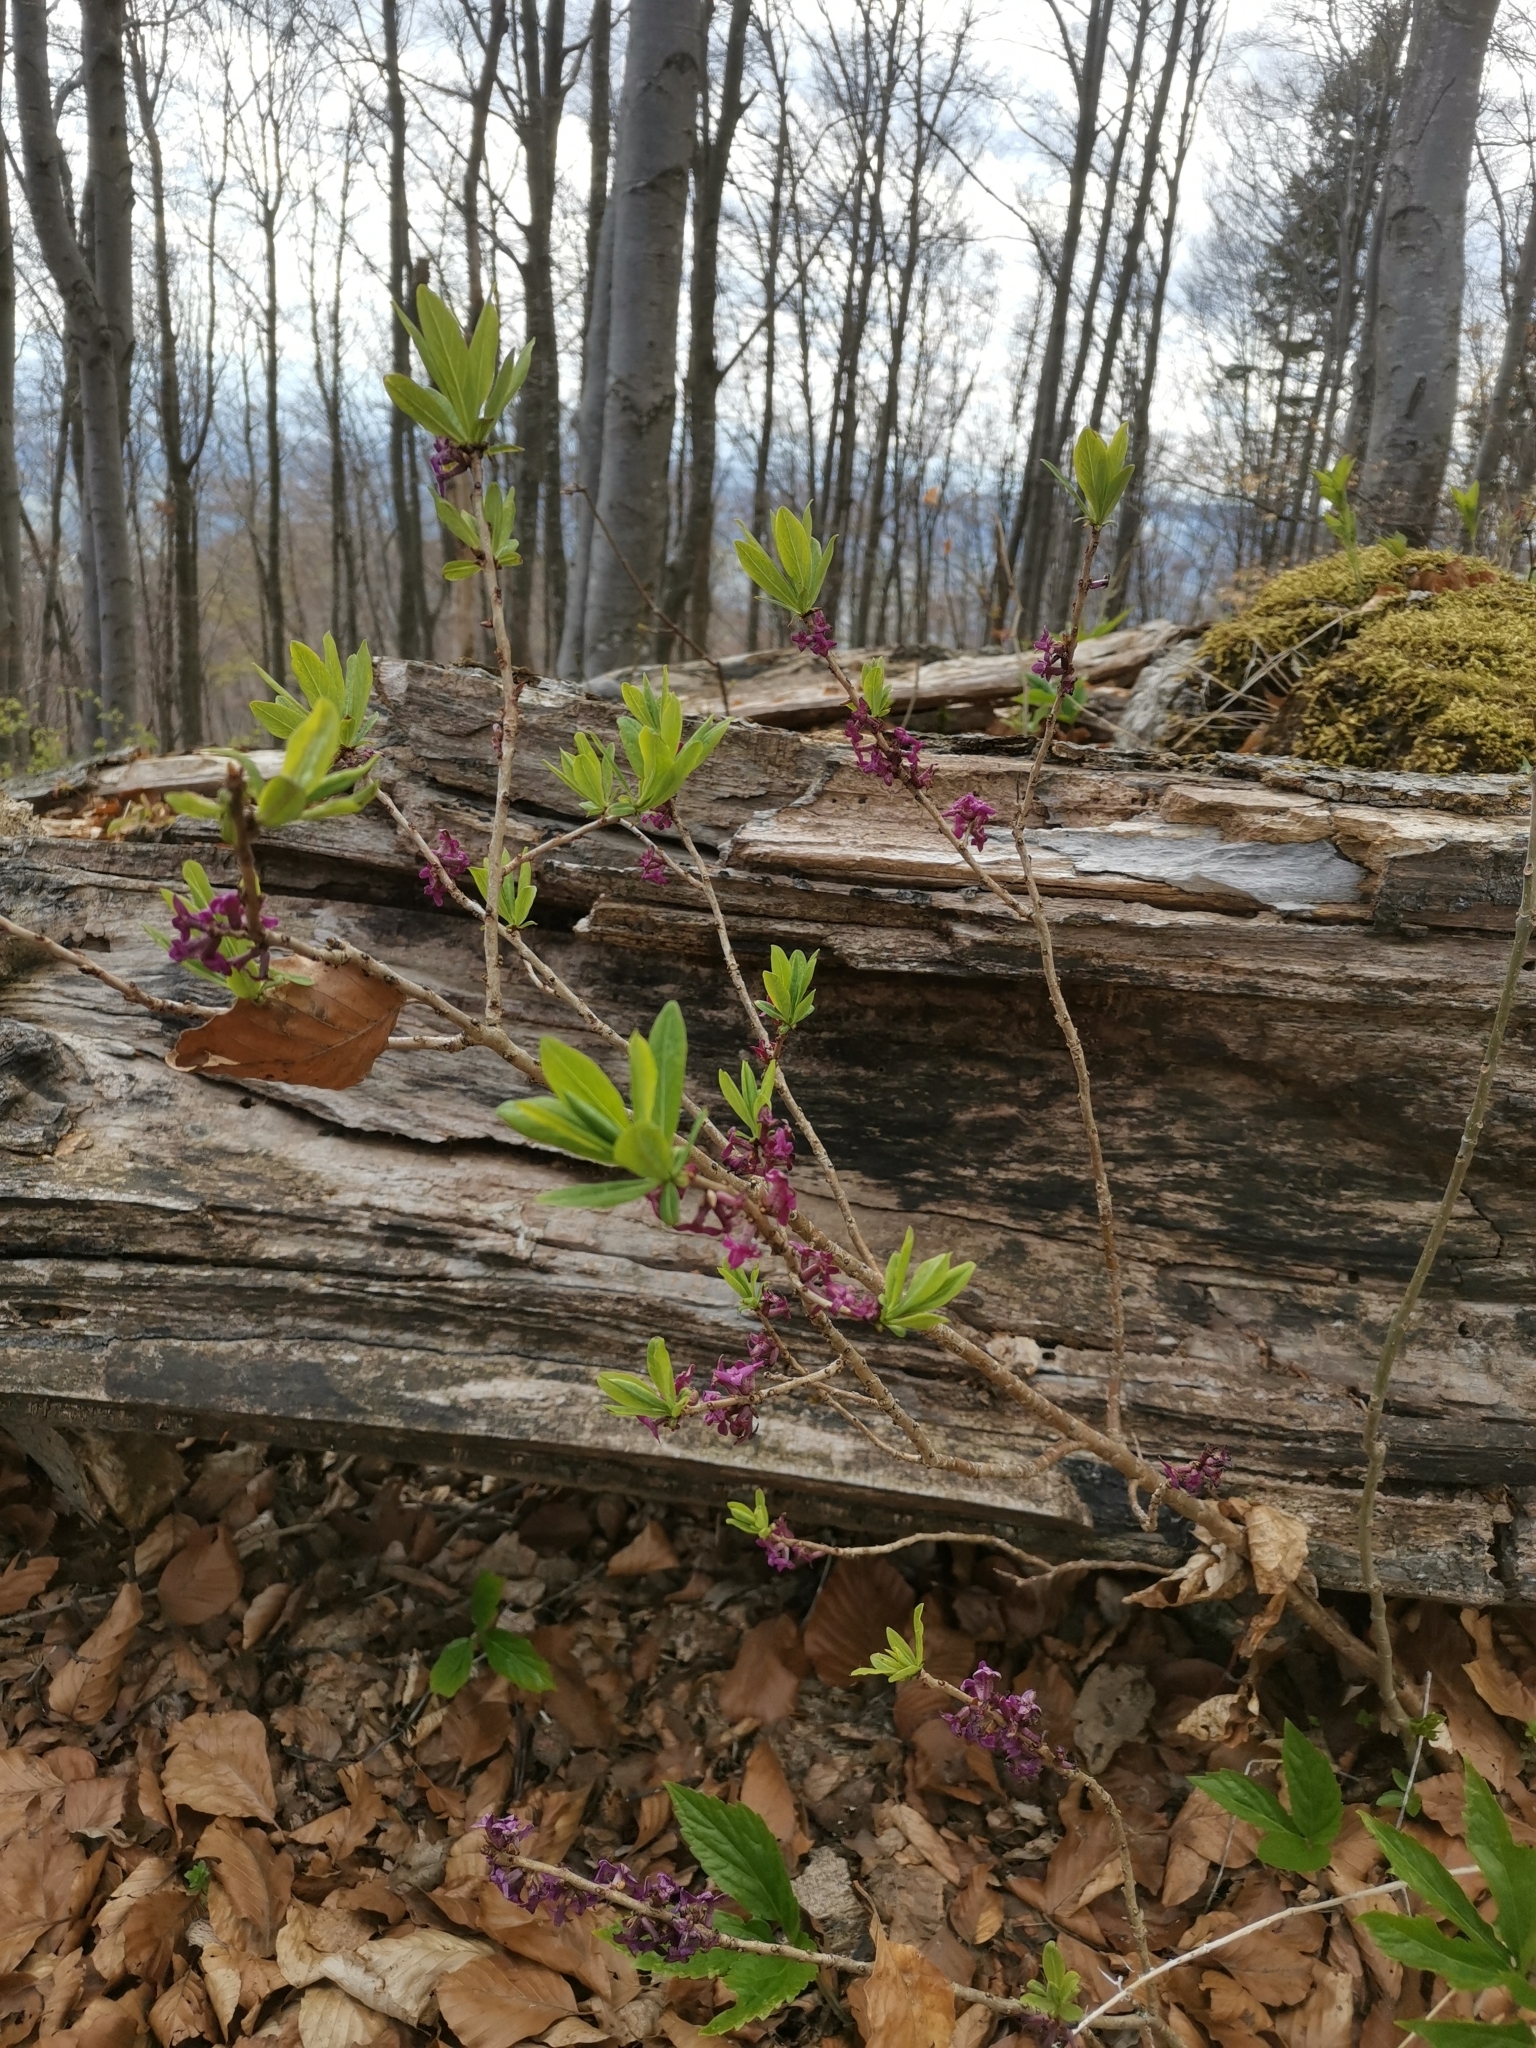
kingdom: Plantae
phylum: Tracheophyta
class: Magnoliopsida
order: Malvales
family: Thymelaeaceae
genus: Daphne
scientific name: Daphne mezereum
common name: Mezereon
